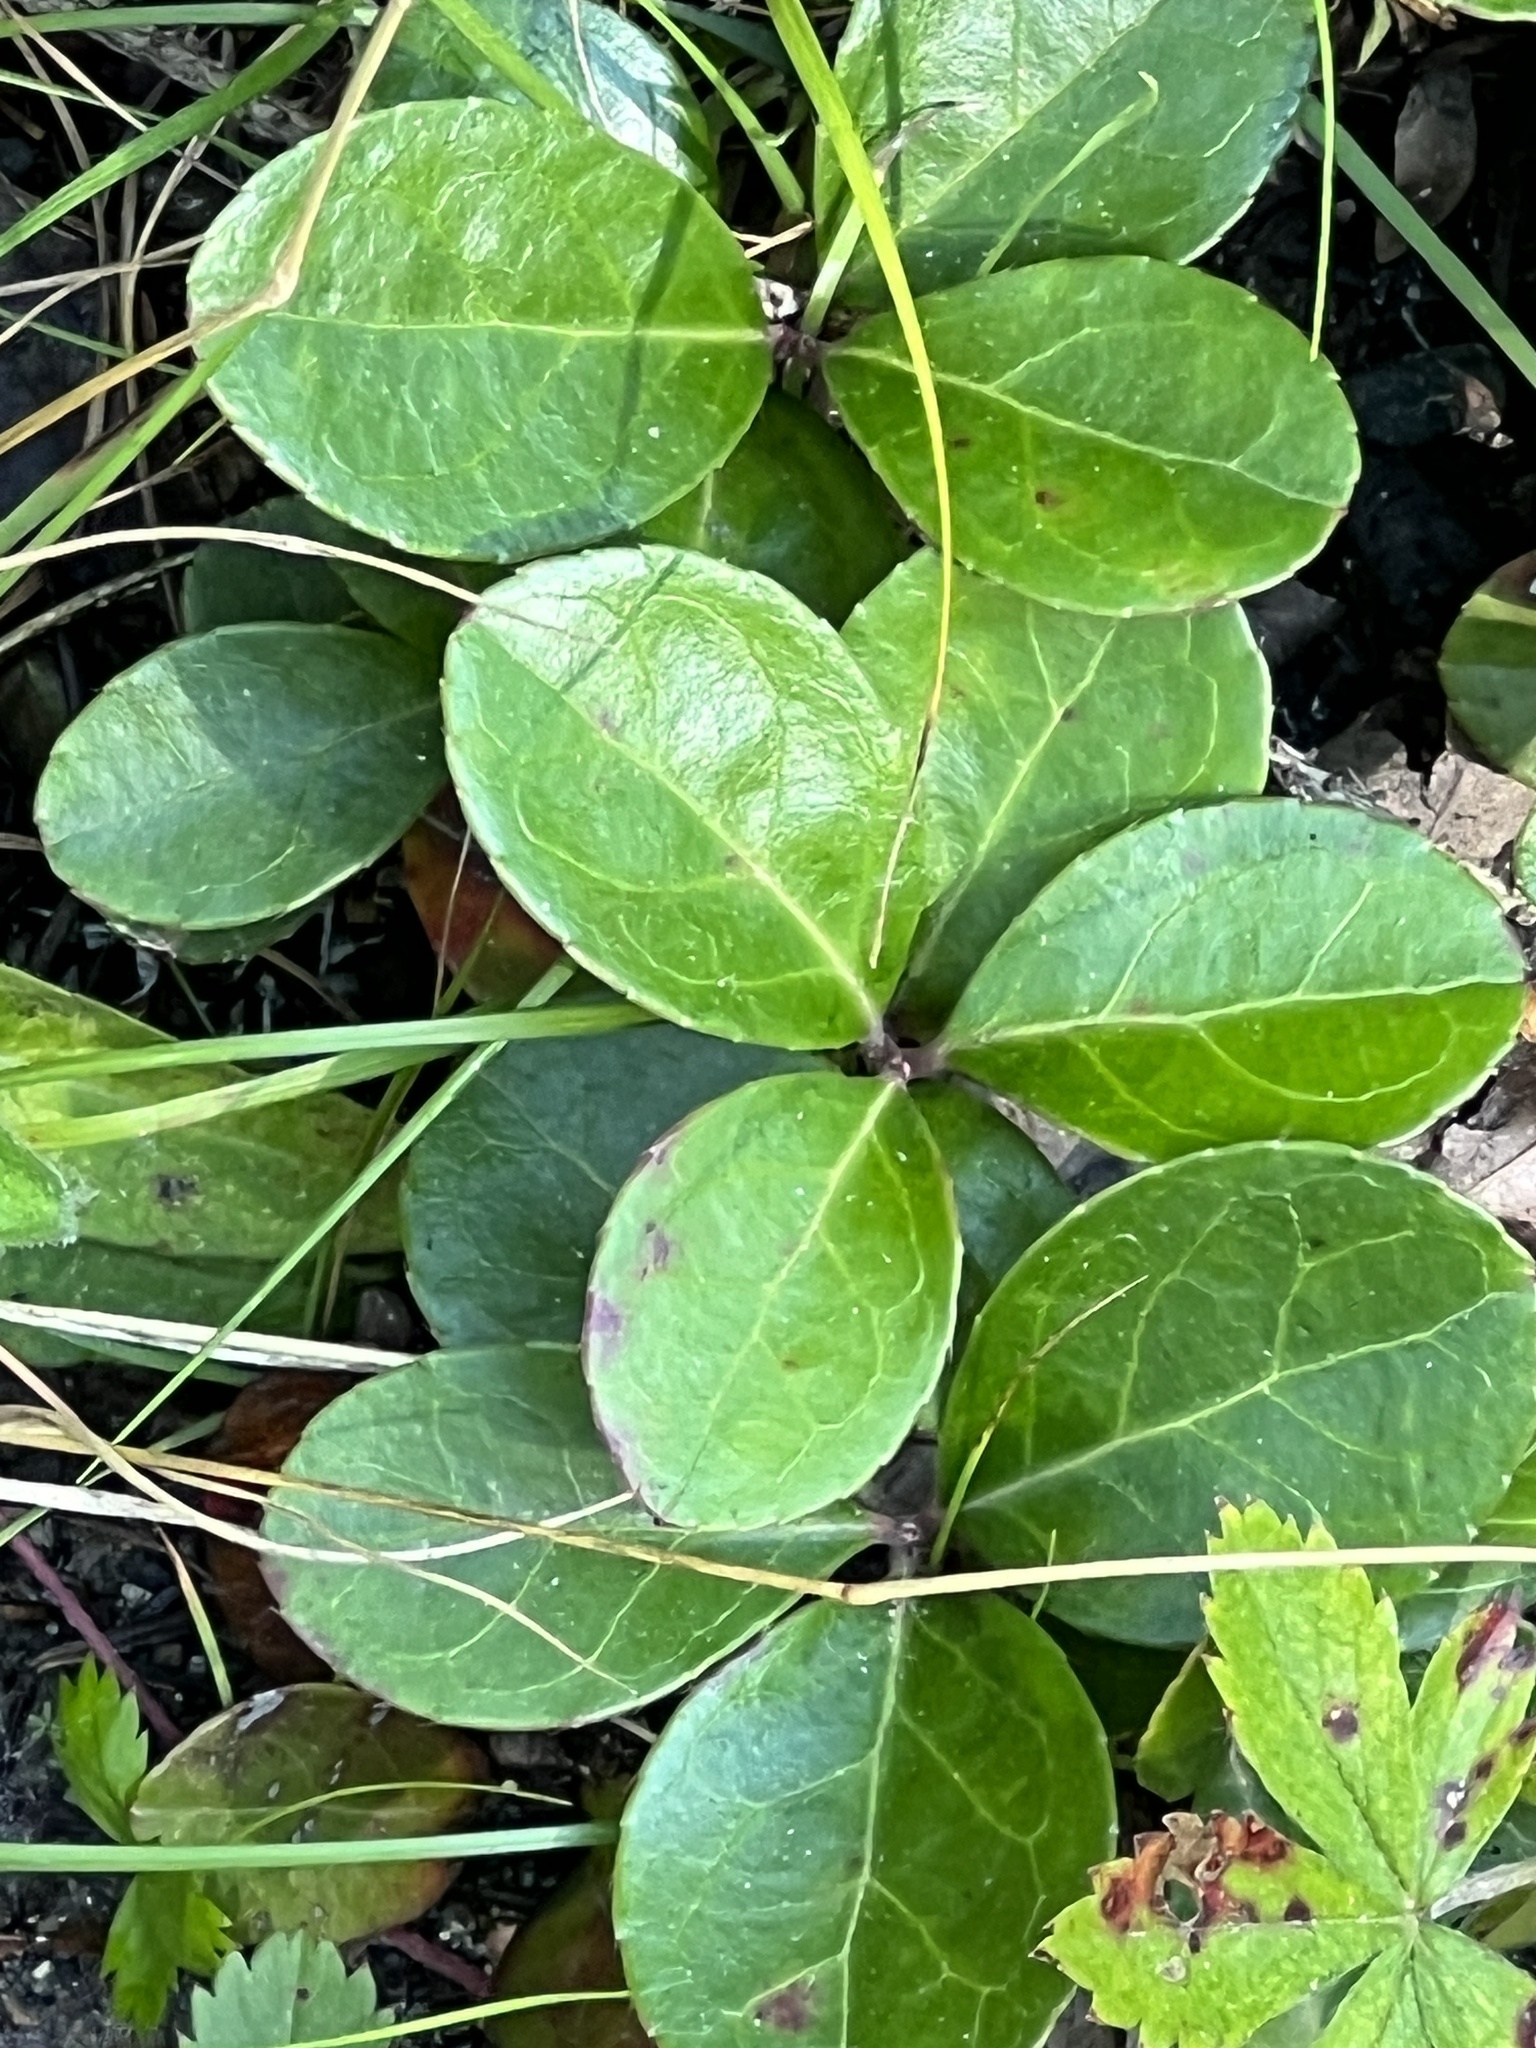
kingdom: Plantae
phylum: Tracheophyta
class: Magnoliopsida
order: Ericales
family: Ericaceae
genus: Gaultheria
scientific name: Gaultheria procumbens
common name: Checkerberry
